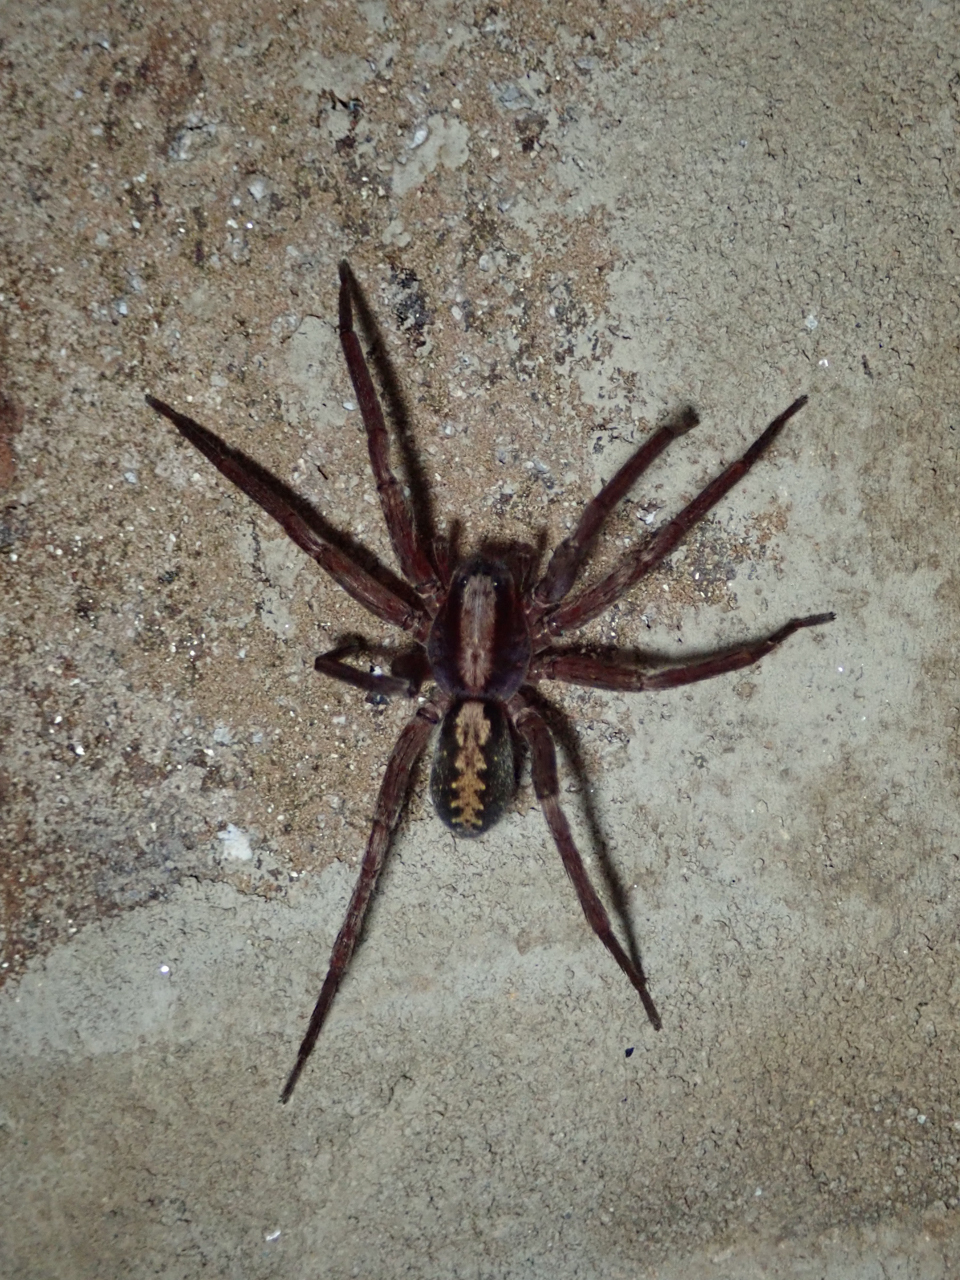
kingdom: Animalia
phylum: Arthropoda
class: Arachnida
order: Araneae
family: Ctenidae
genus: Ctenus
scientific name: Ctenus hibernalis
